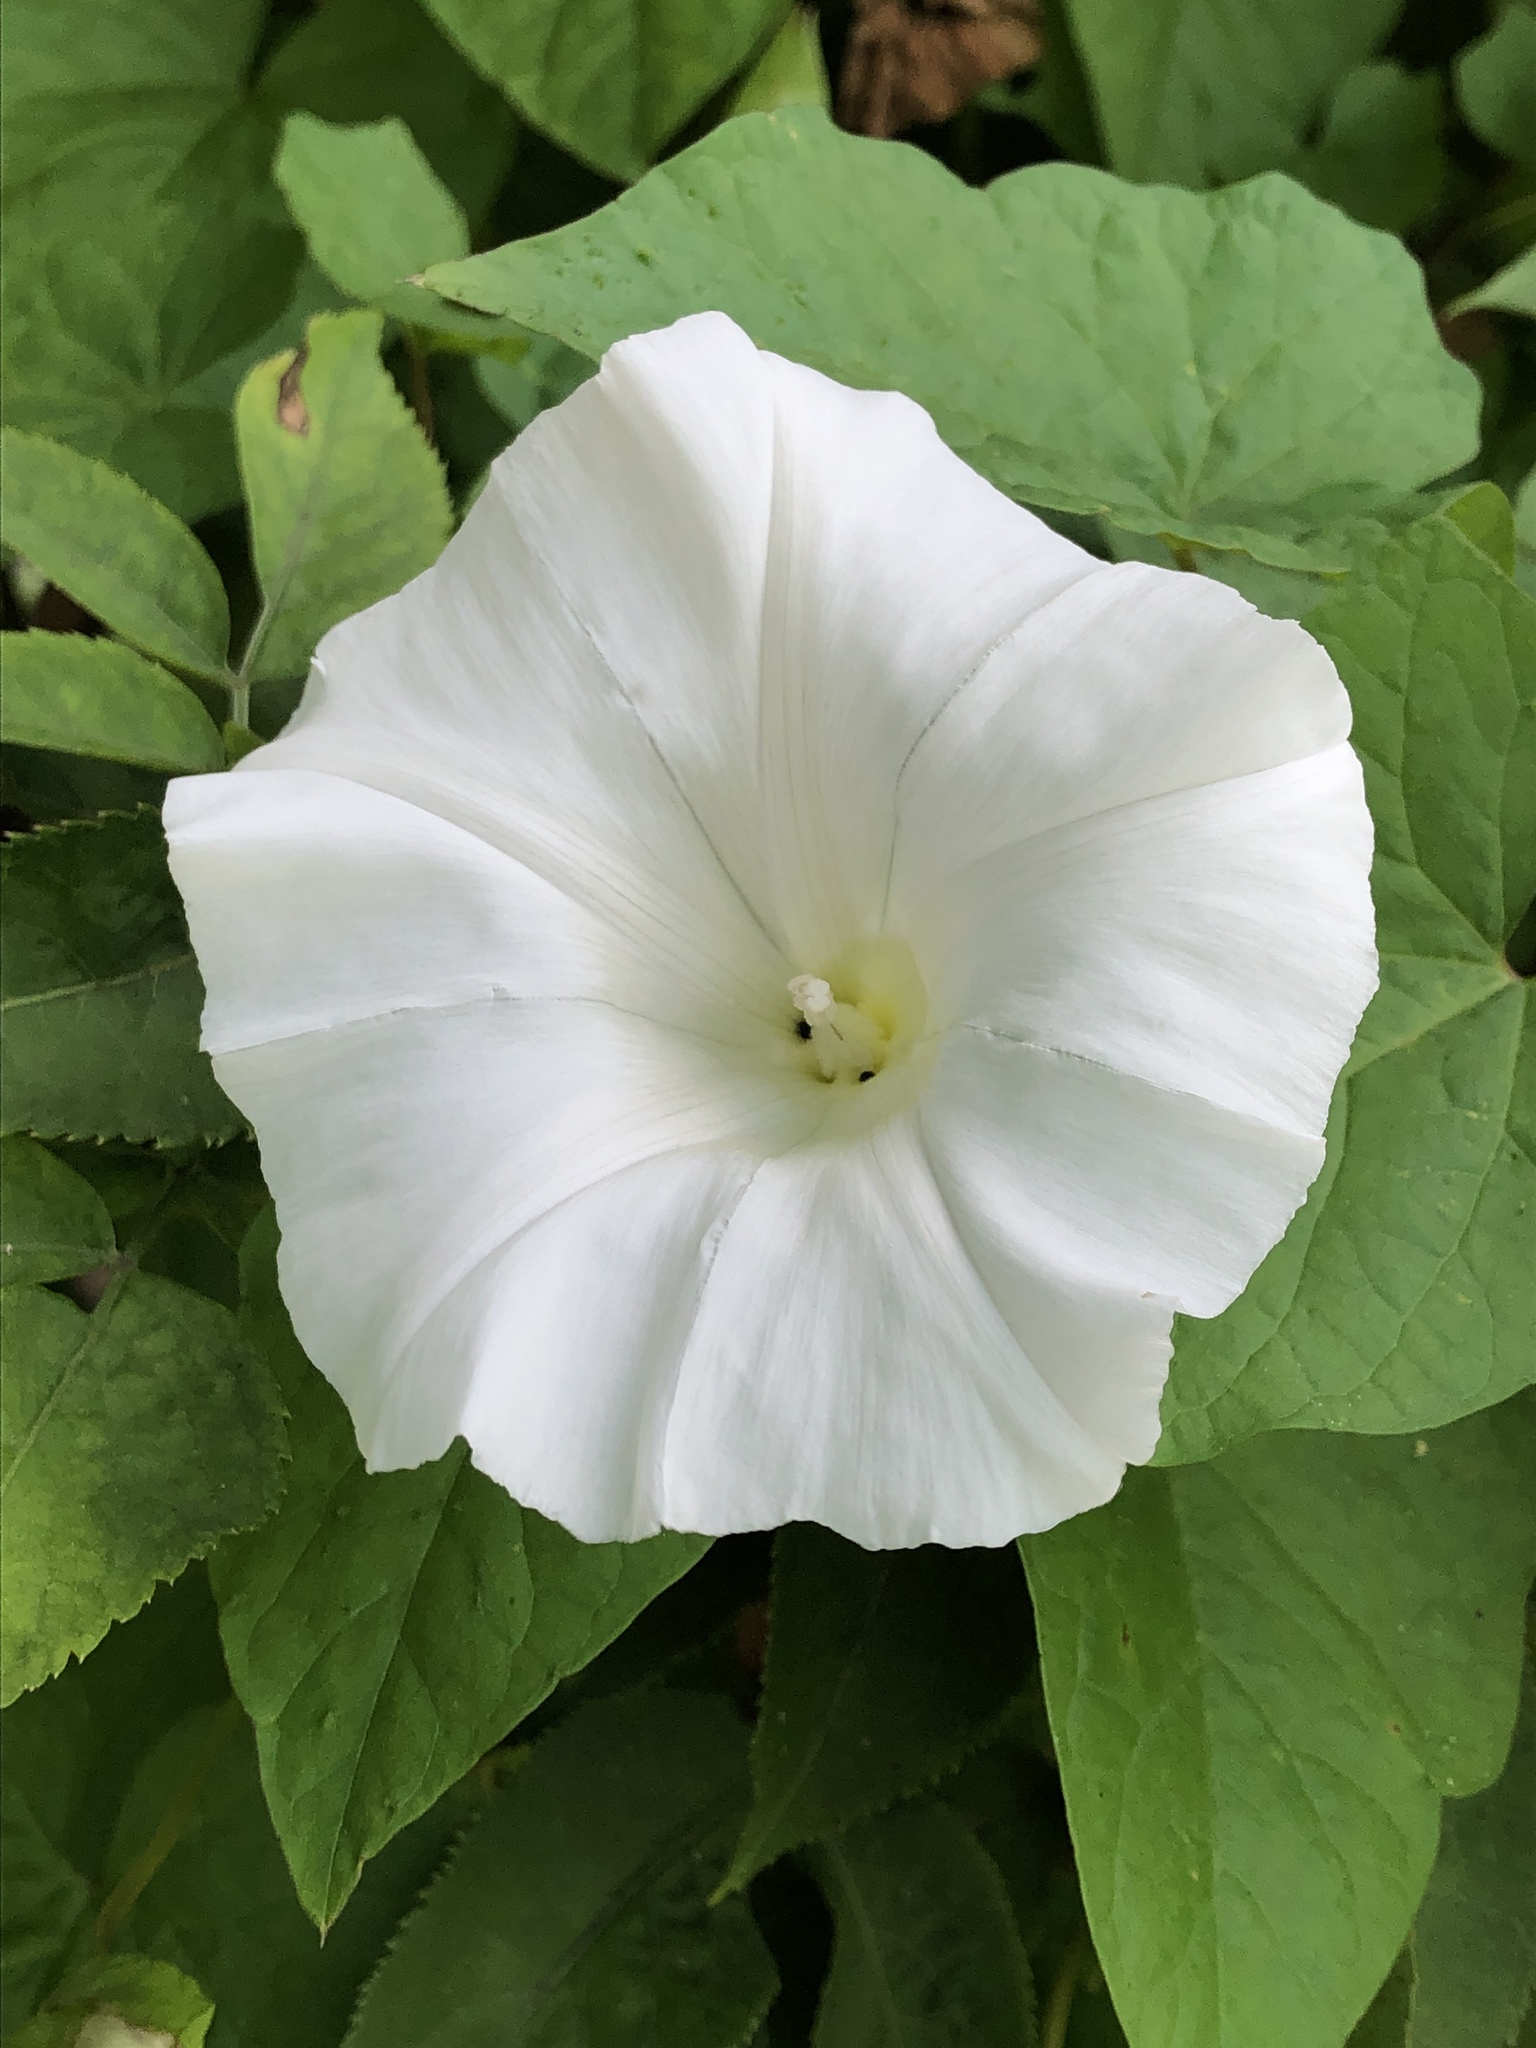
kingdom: Plantae
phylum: Tracheophyta
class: Magnoliopsida
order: Solanales
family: Convolvulaceae
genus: Calystegia
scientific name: Calystegia silvatica
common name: Large bindweed
